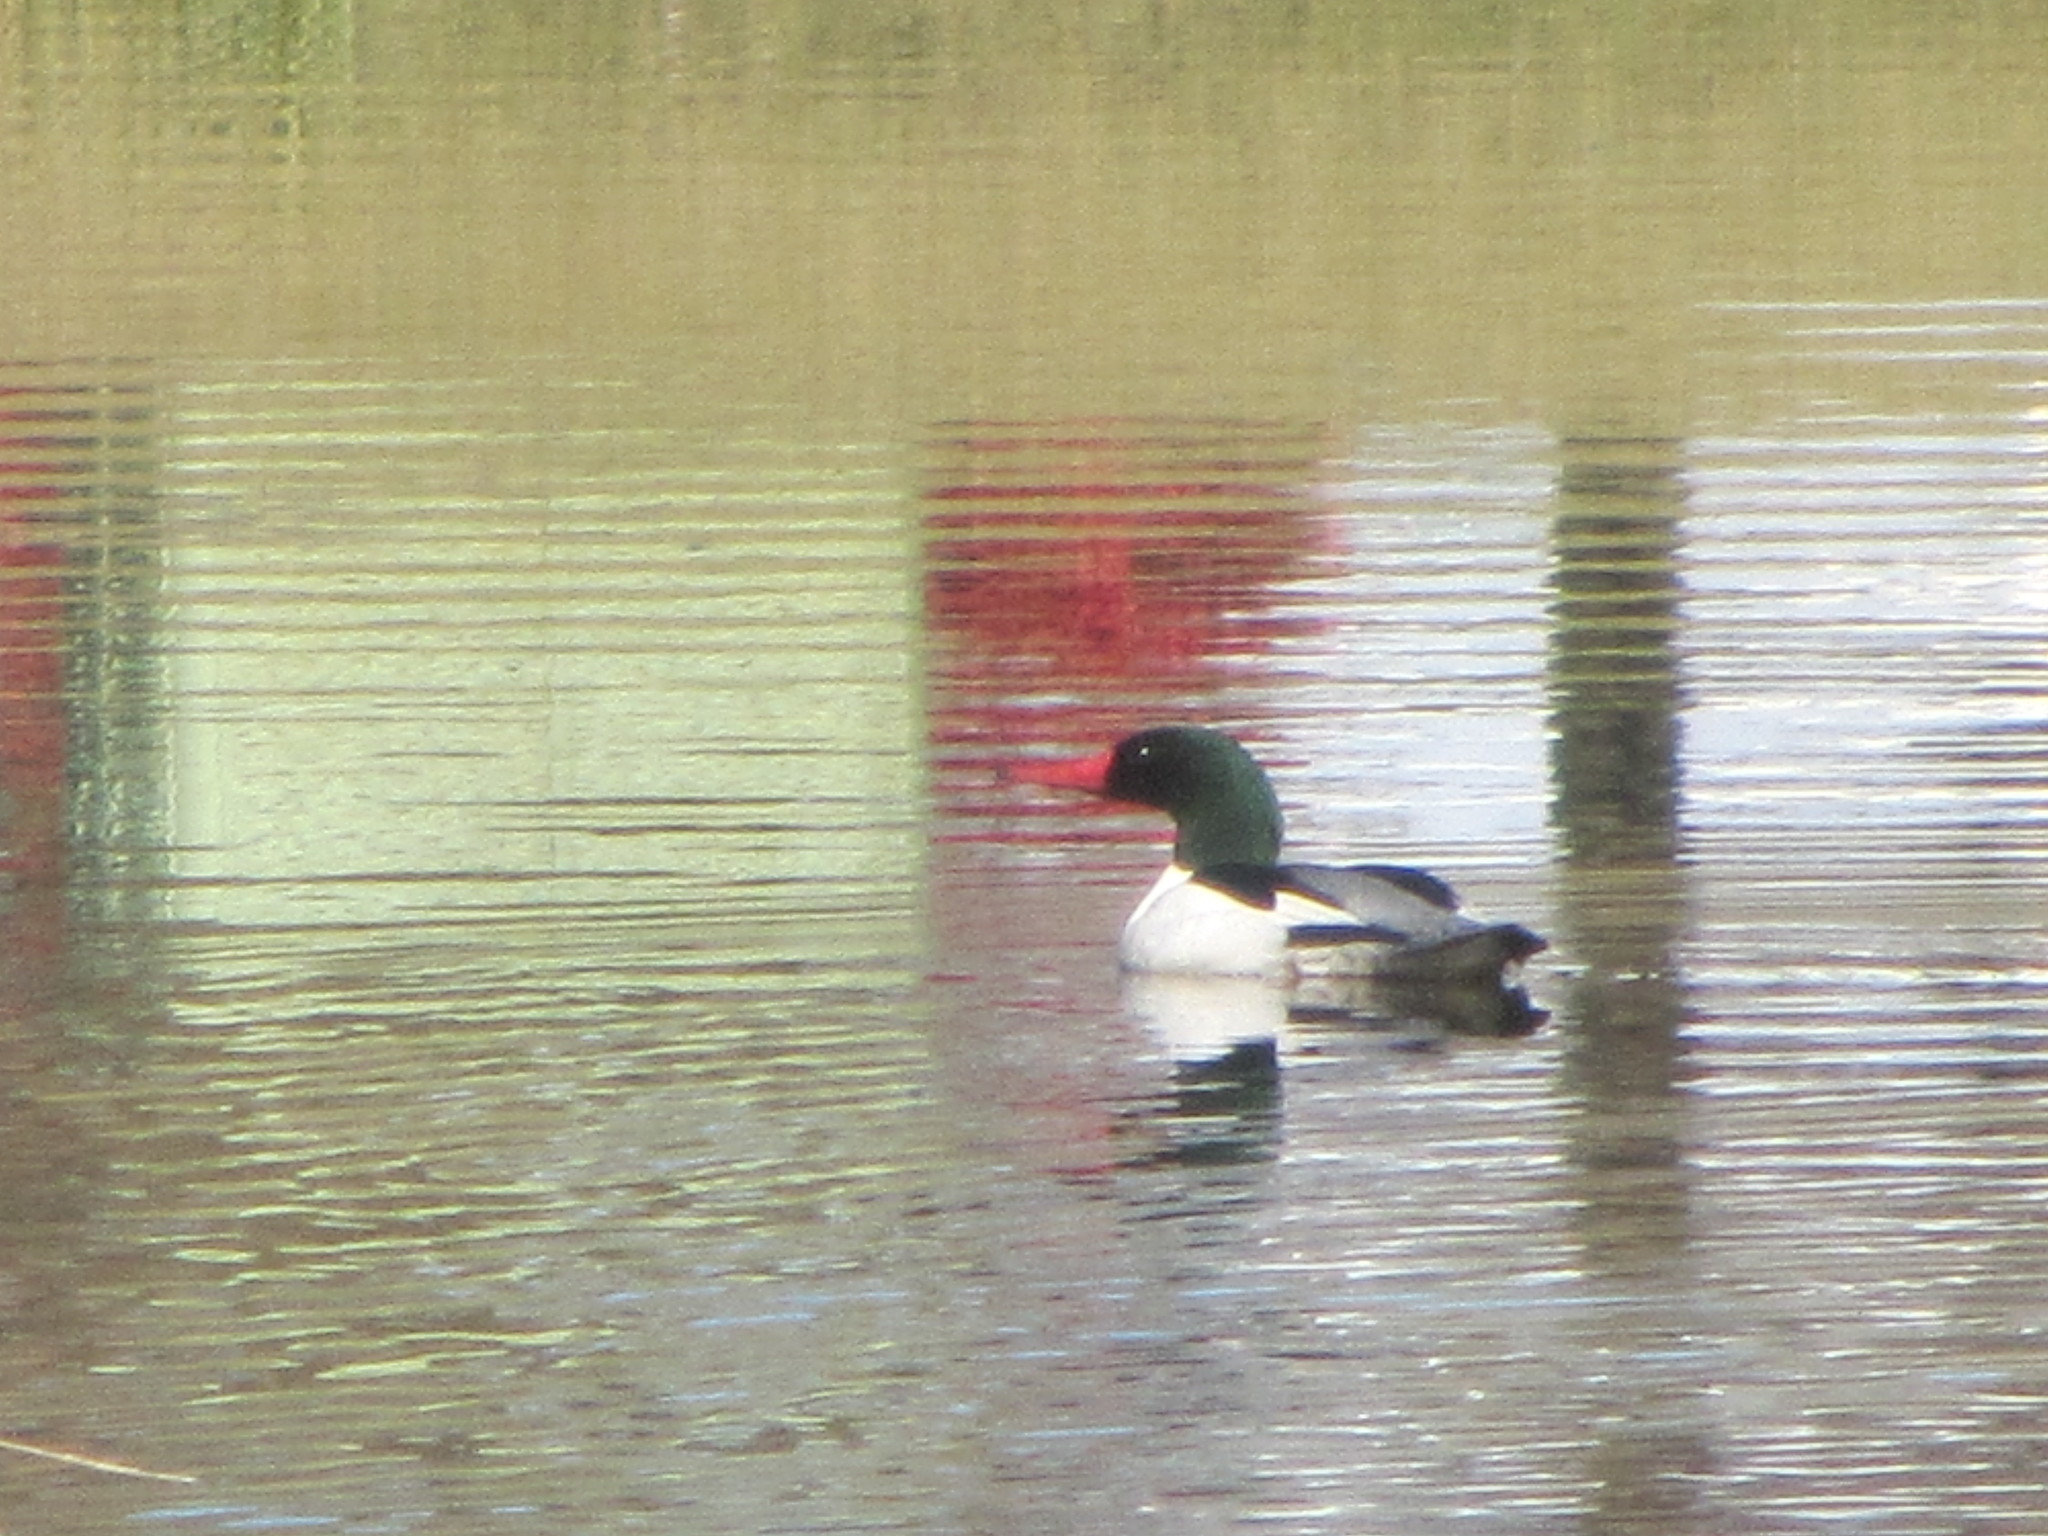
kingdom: Animalia
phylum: Chordata
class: Aves
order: Anseriformes
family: Anatidae
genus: Mergus
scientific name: Mergus merganser
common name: Common merganser
